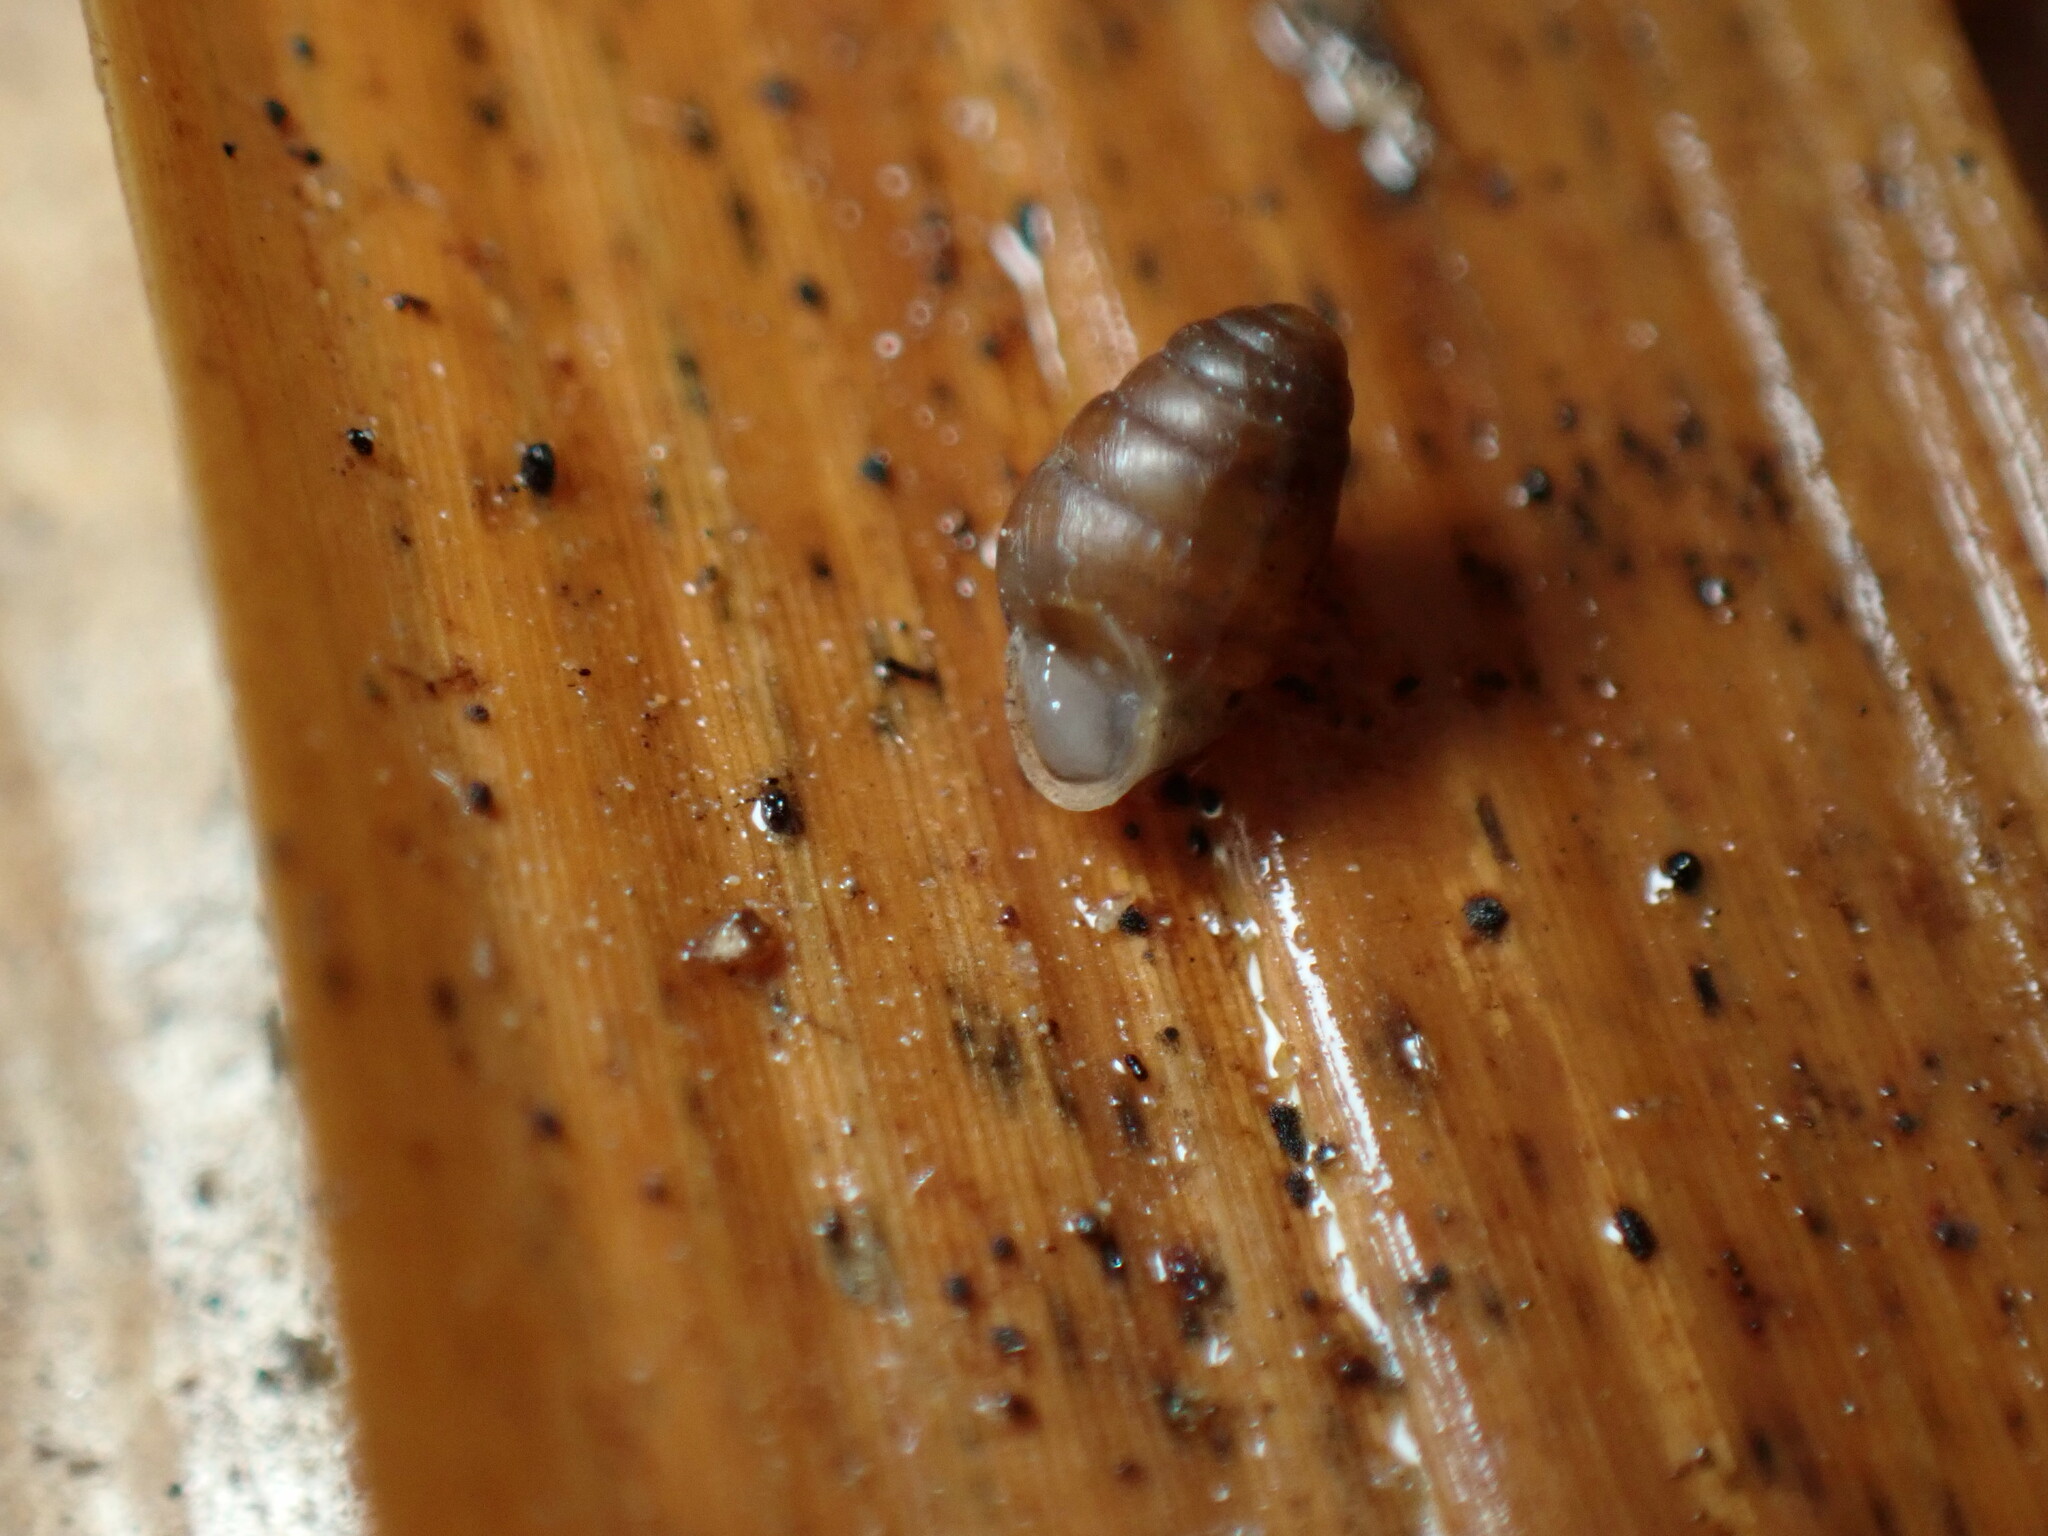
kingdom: Animalia
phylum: Mollusca
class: Gastropoda
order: Stylommatophora
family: Lauriidae
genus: Lauria
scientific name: Lauria cylindracea
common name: Common chrysalis snail
